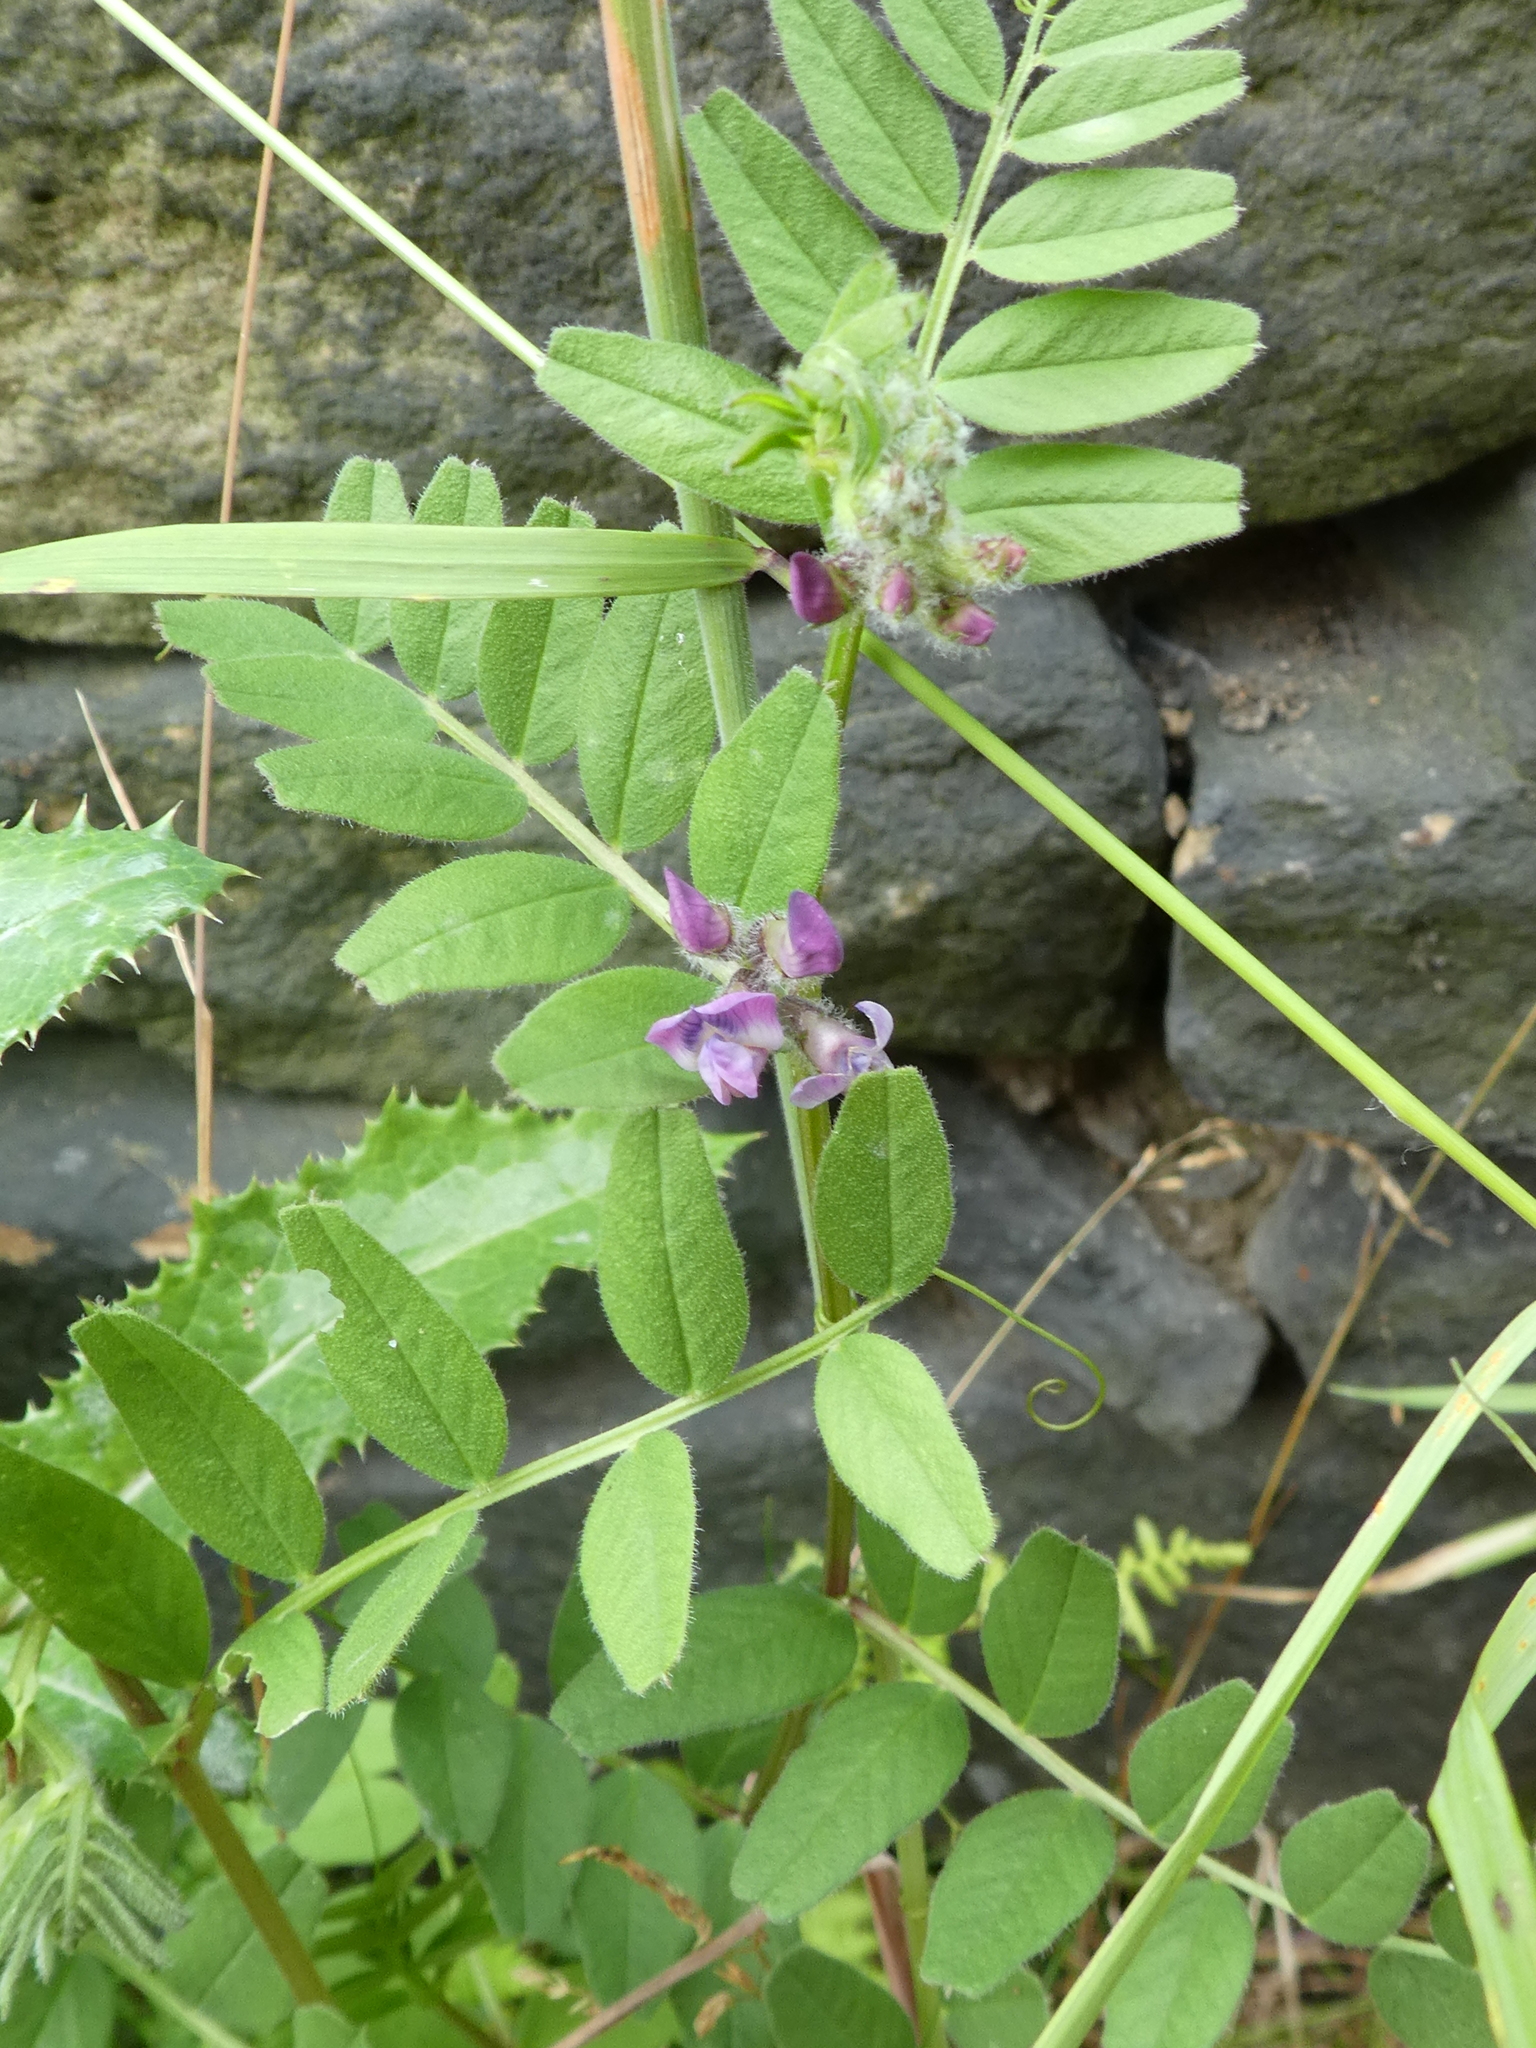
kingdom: Plantae
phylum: Tracheophyta
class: Magnoliopsida
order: Fabales
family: Fabaceae
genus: Vicia
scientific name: Vicia sepium
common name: Bush vetch
